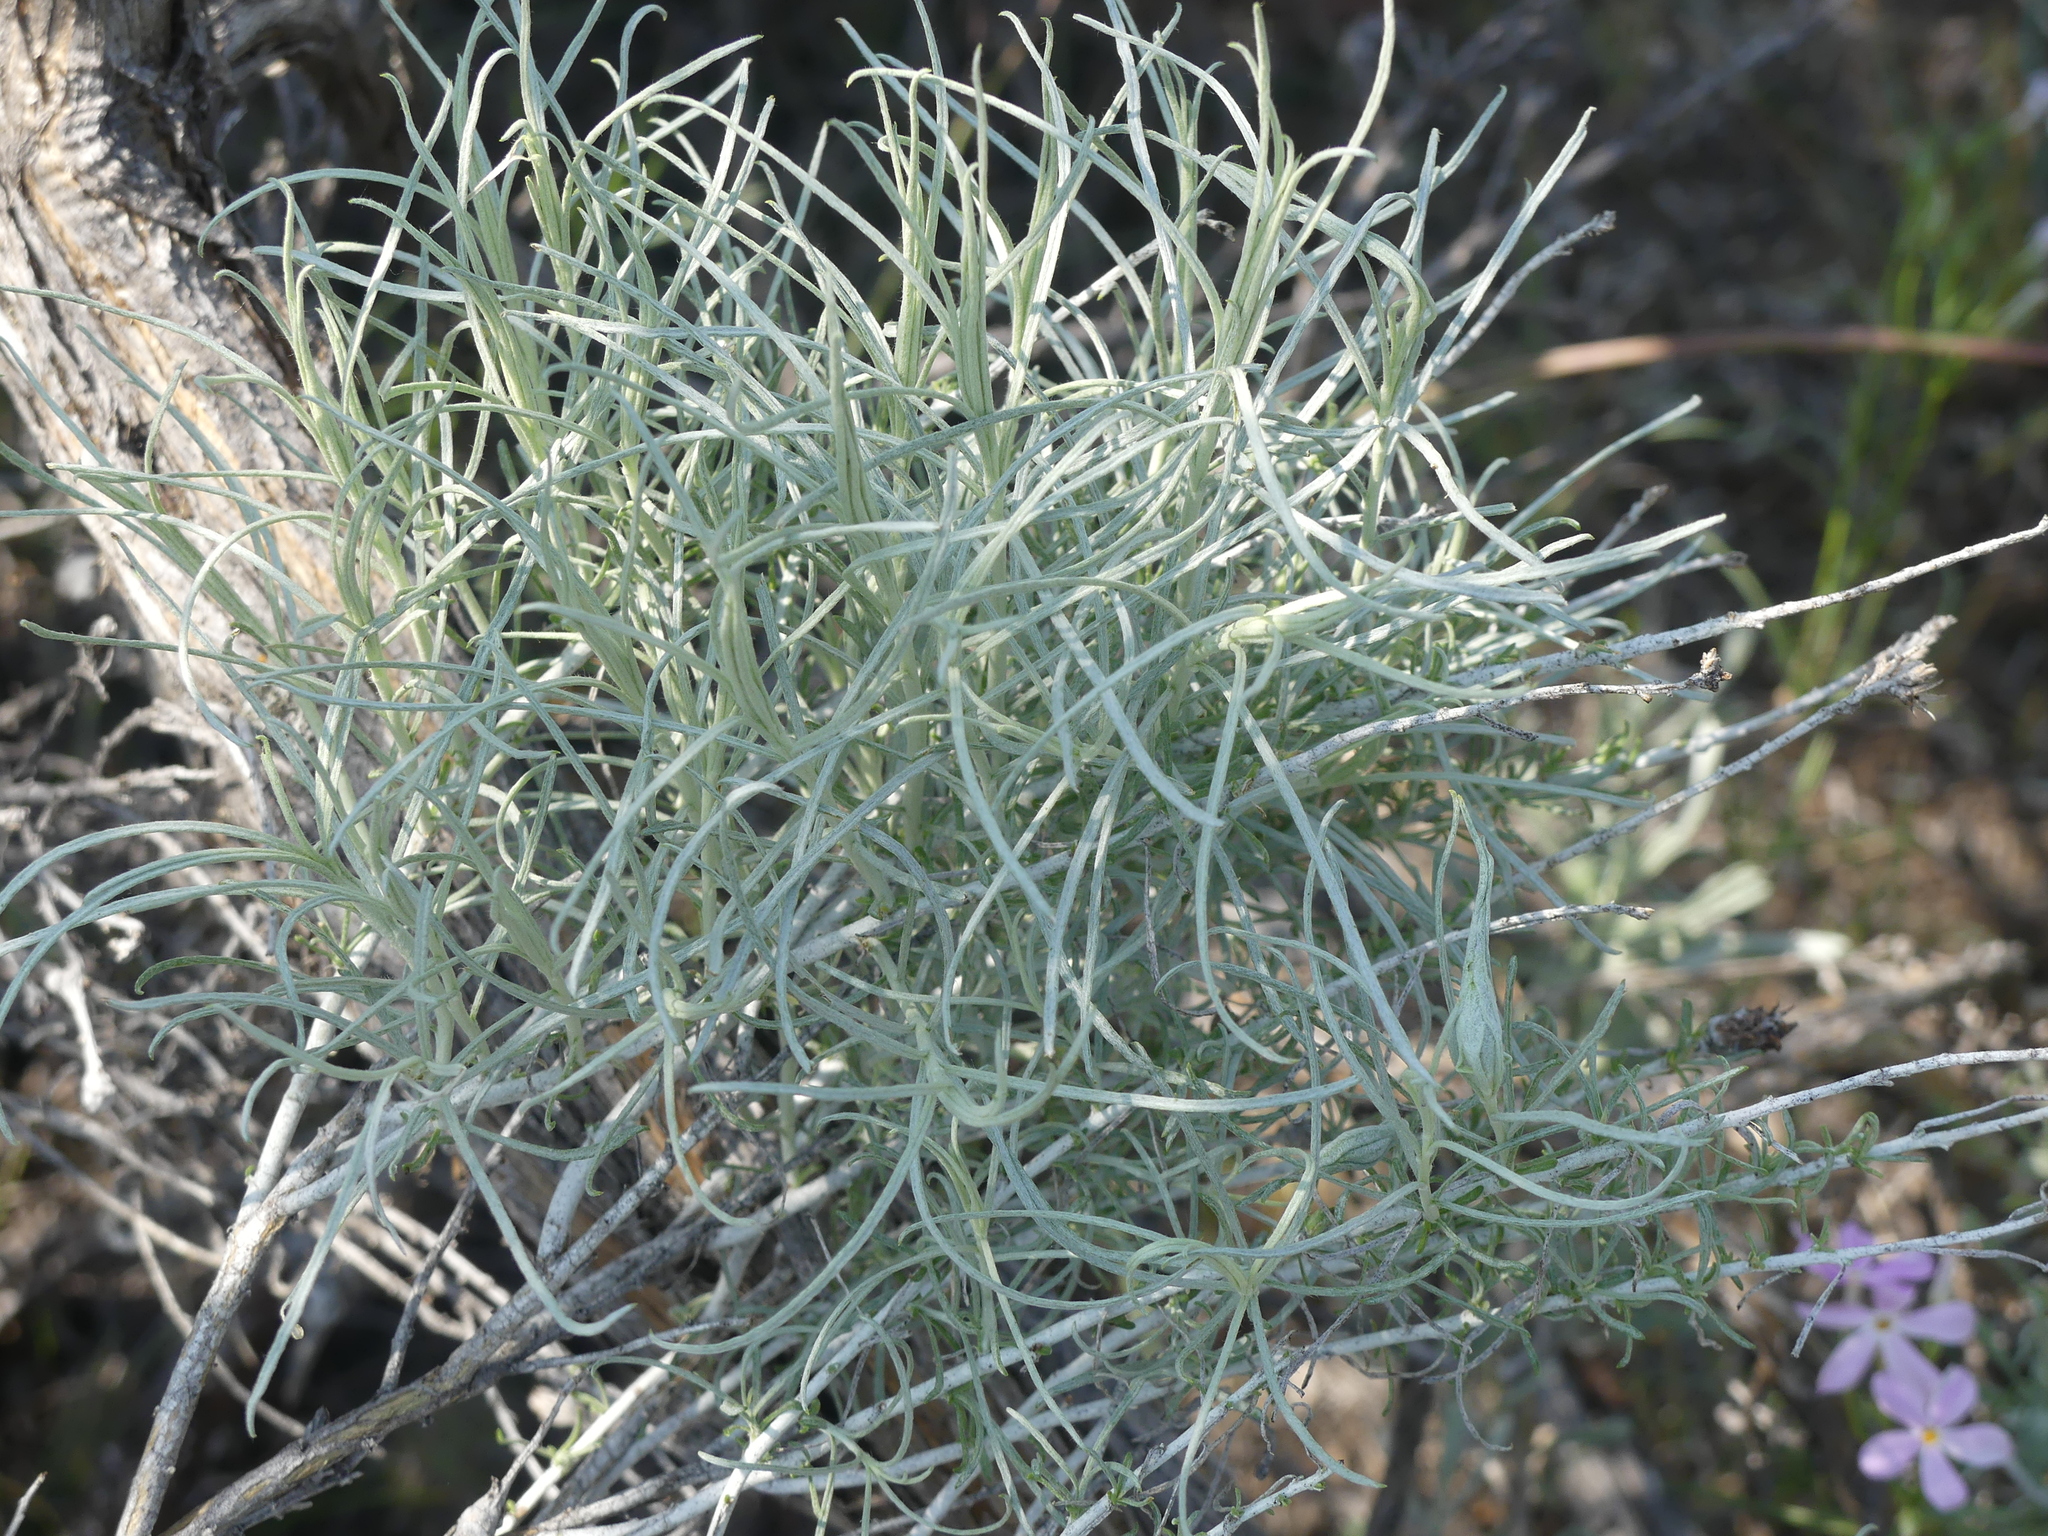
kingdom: Plantae
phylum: Tracheophyta
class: Magnoliopsida
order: Asterales
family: Asteraceae
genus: Ericameria
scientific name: Ericameria nauseosa
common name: Rubber rabbitbrush
